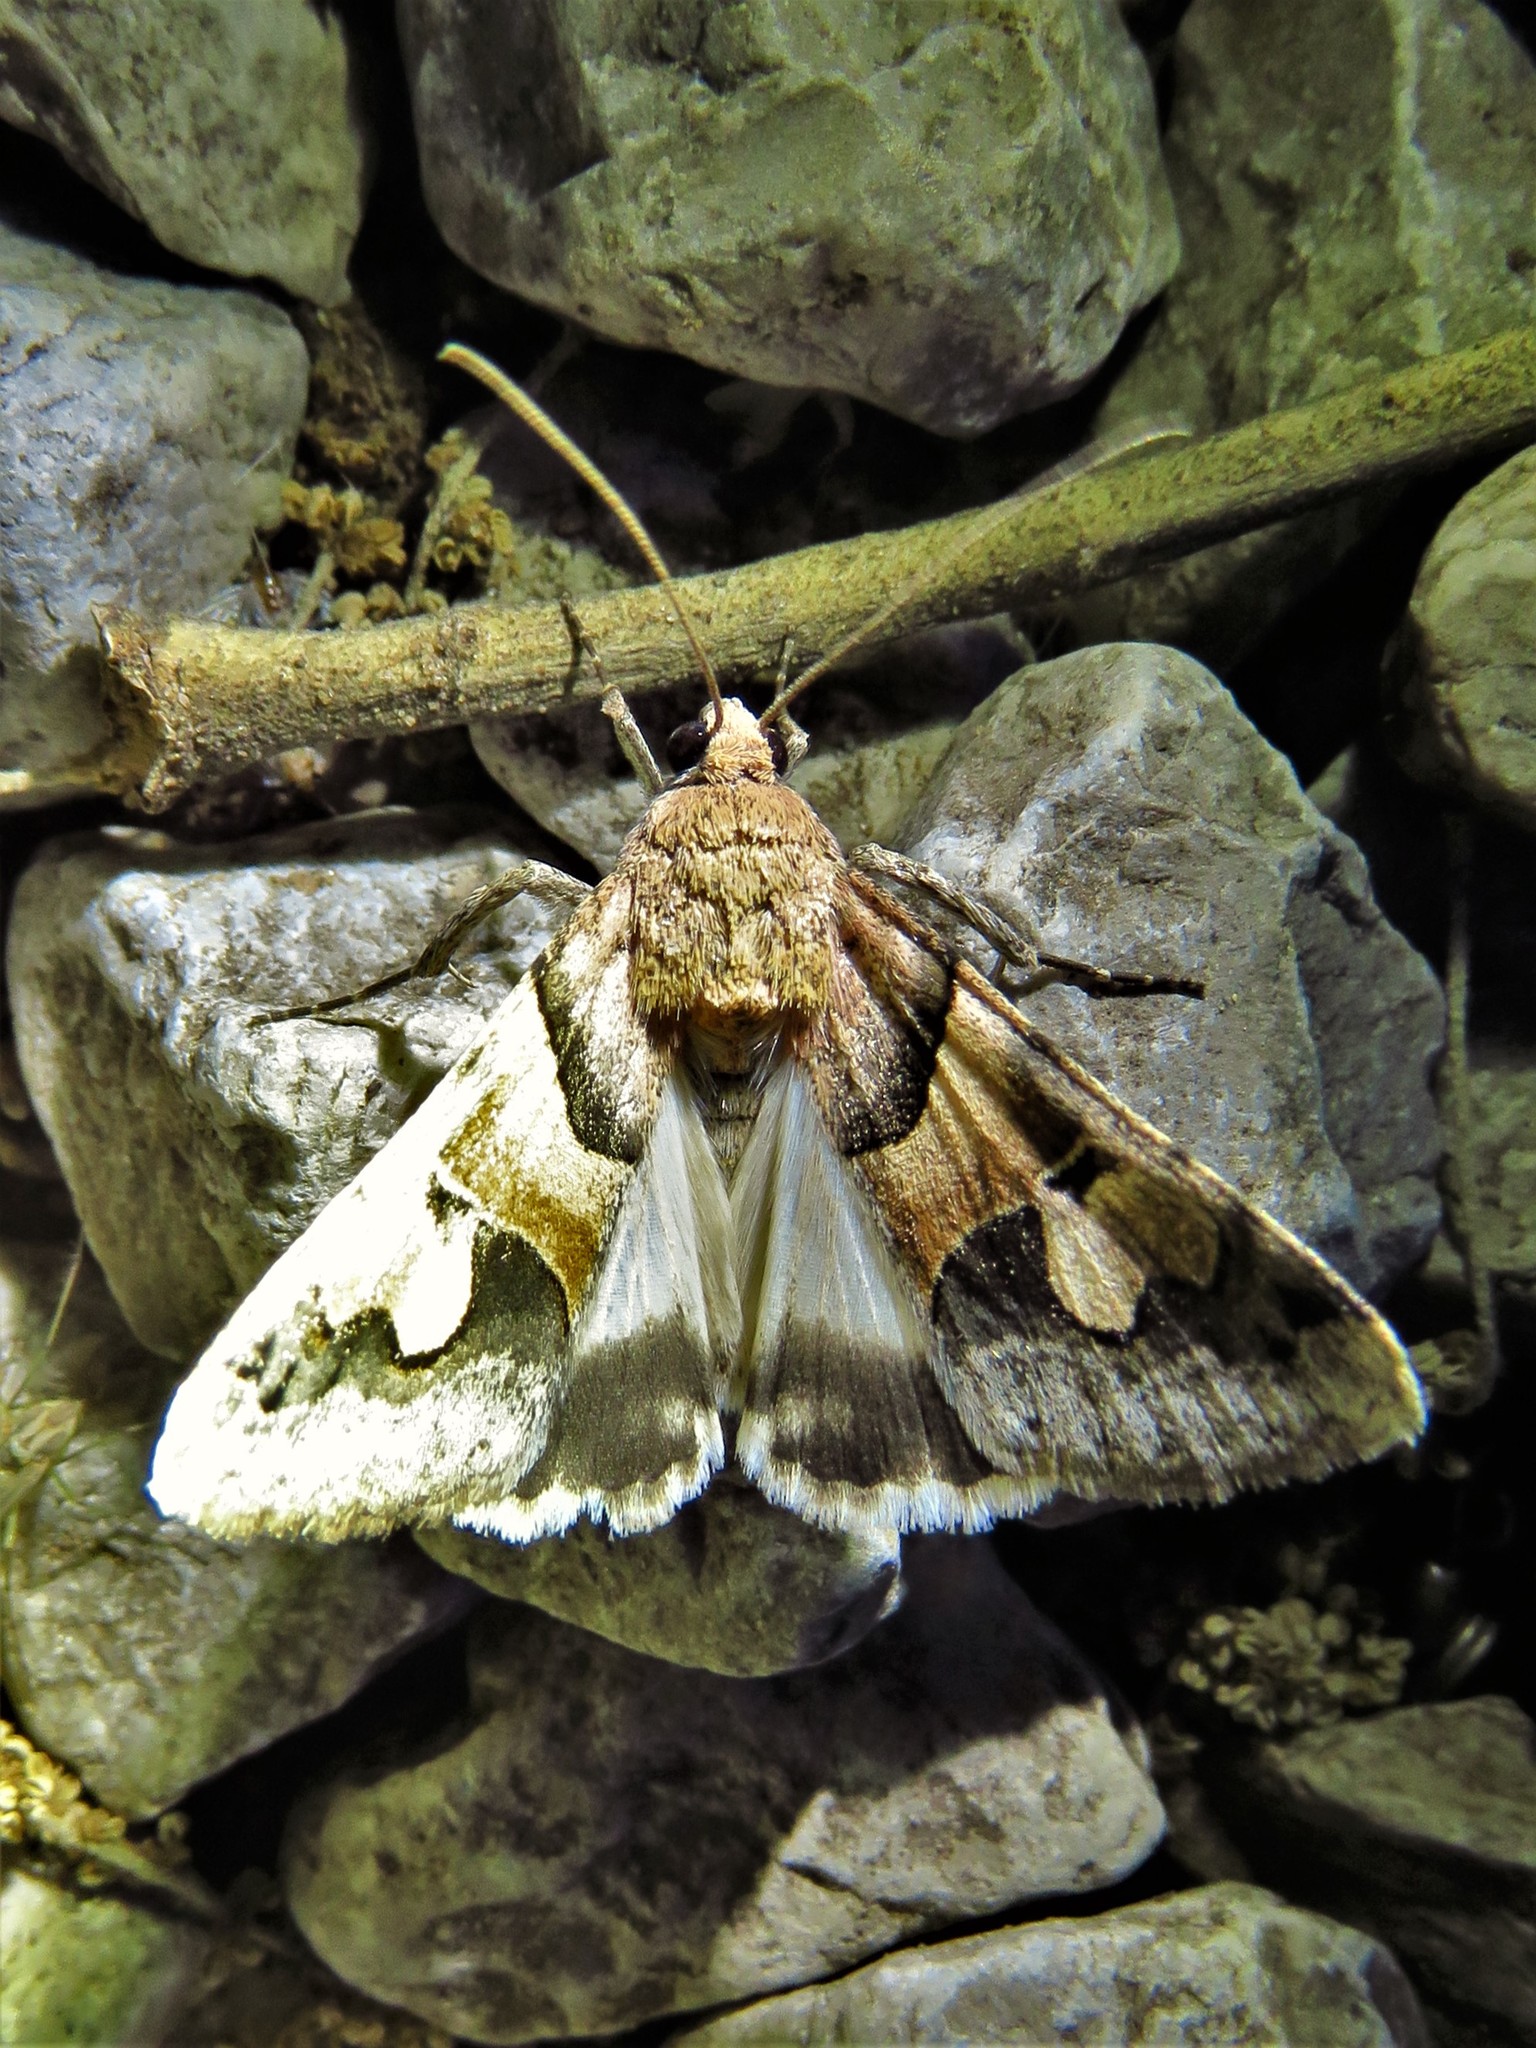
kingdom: Animalia
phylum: Arthropoda
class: Insecta
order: Lepidoptera
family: Erebidae
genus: Drasteria
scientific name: Drasteria pallescens
